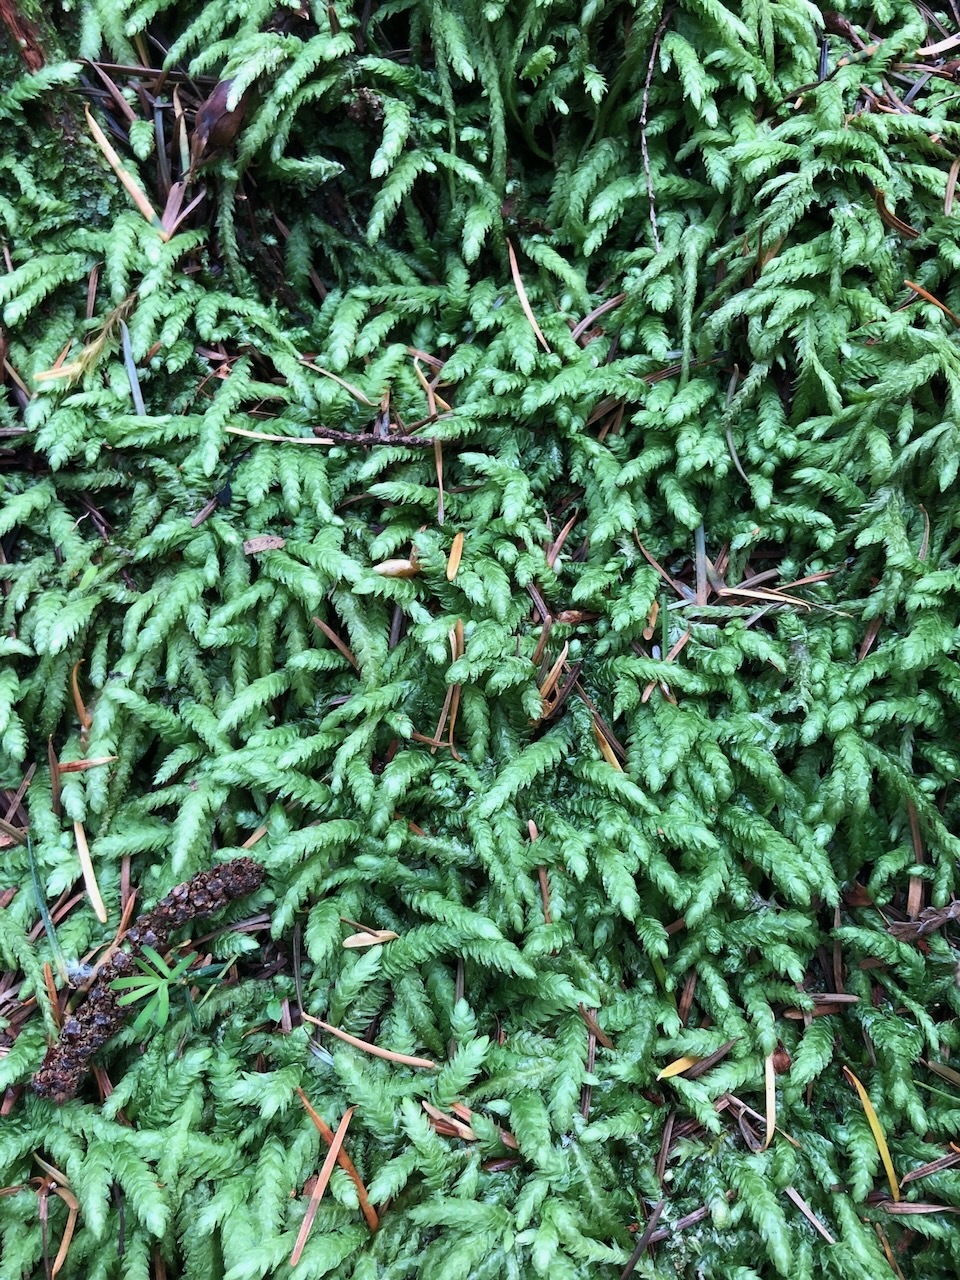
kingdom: Plantae
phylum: Bryophyta
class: Bryopsida
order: Hypnales
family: Plagiotheciaceae
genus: Plagiothecium
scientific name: Plagiothecium undulatum
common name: Waved silk-moss
